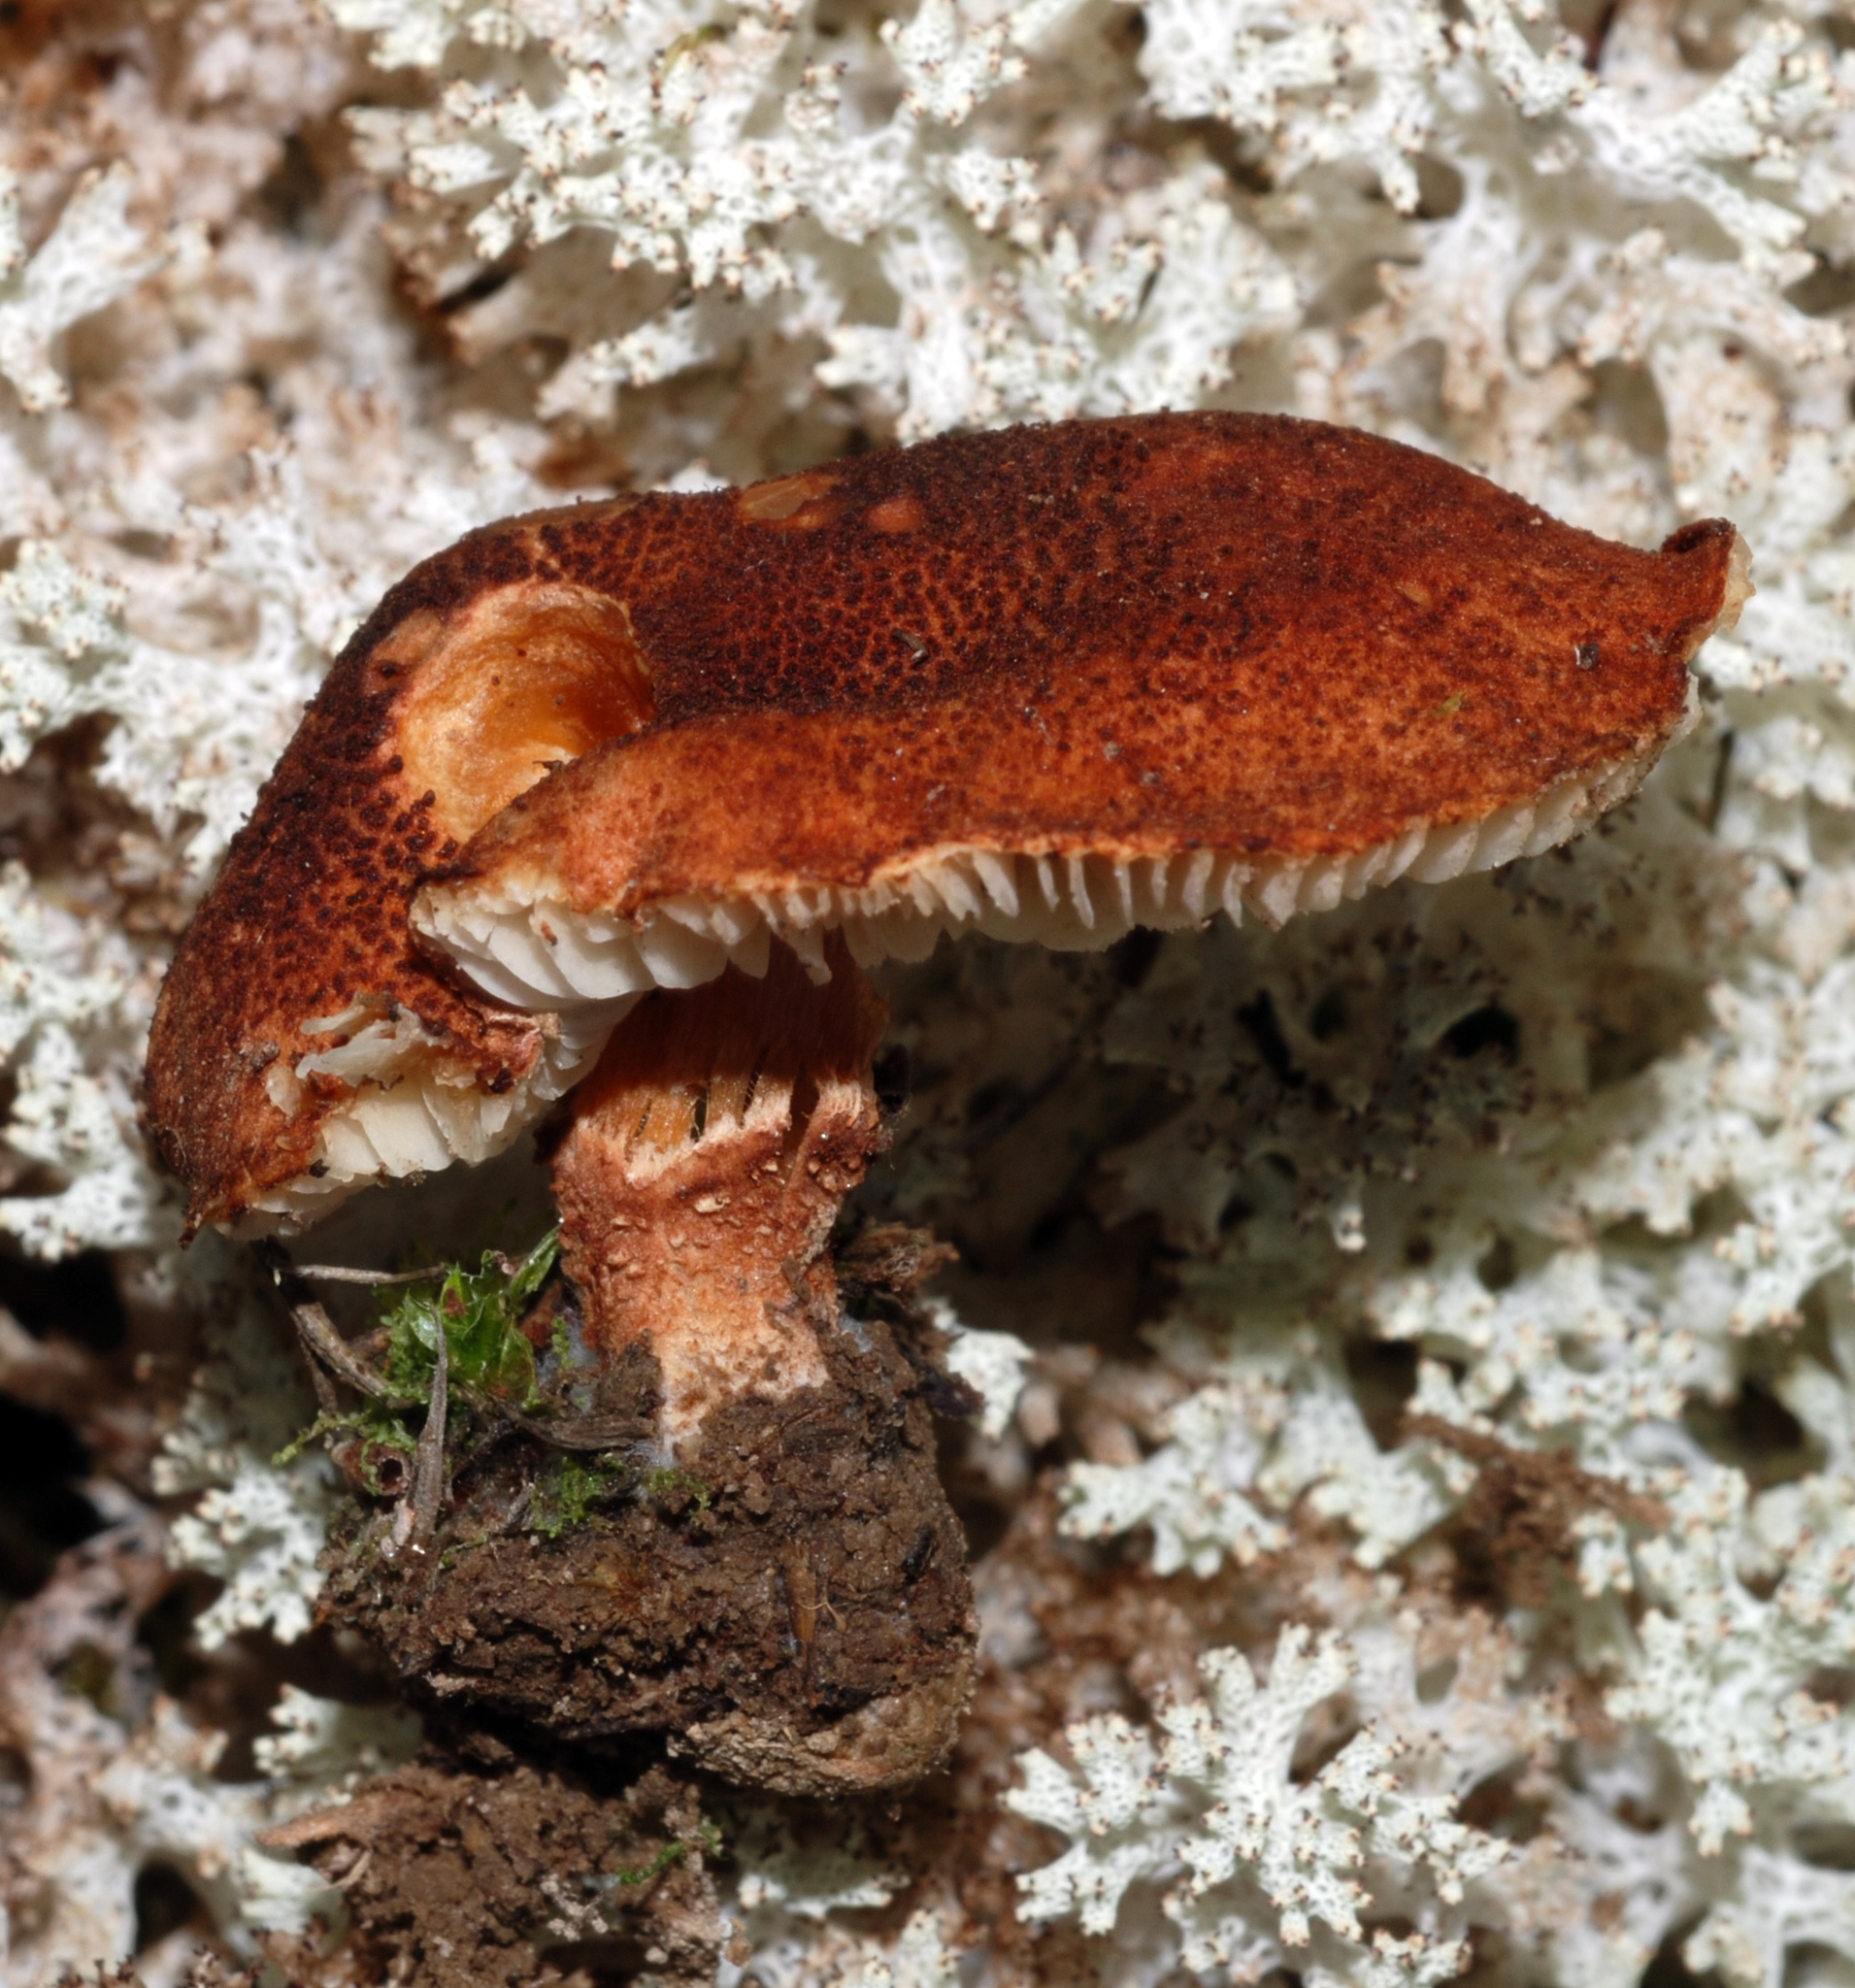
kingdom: Fungi
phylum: Basidiomycota
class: Agaricomycetes
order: Agaricales
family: Agaricaceae
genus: Cystodermella
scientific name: Cystodermella
